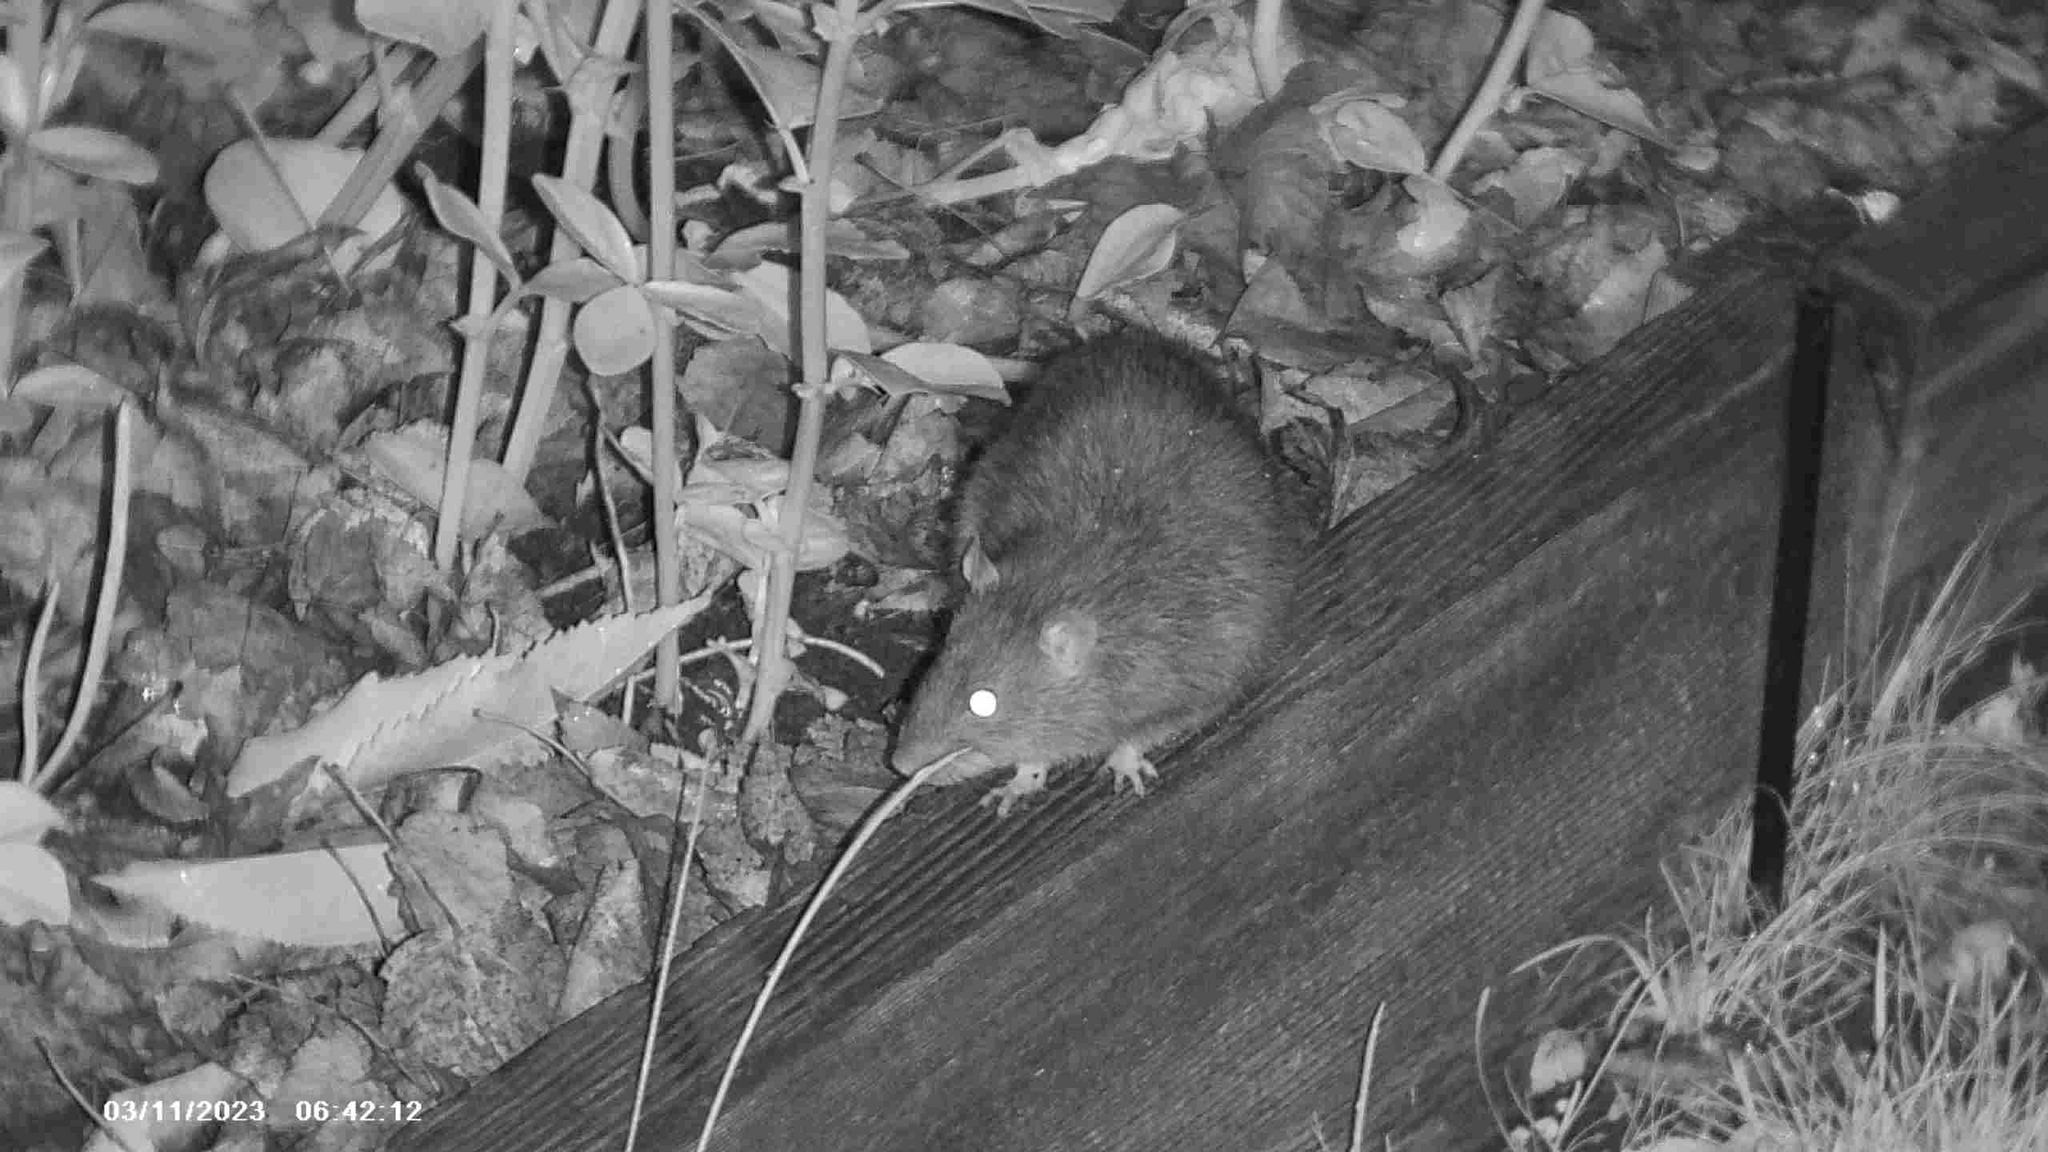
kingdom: Animalia
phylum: Chordata
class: Mammalia
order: Rodentia
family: Muridae
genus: Rattus
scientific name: Rattus norvegicus
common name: Brown rat
